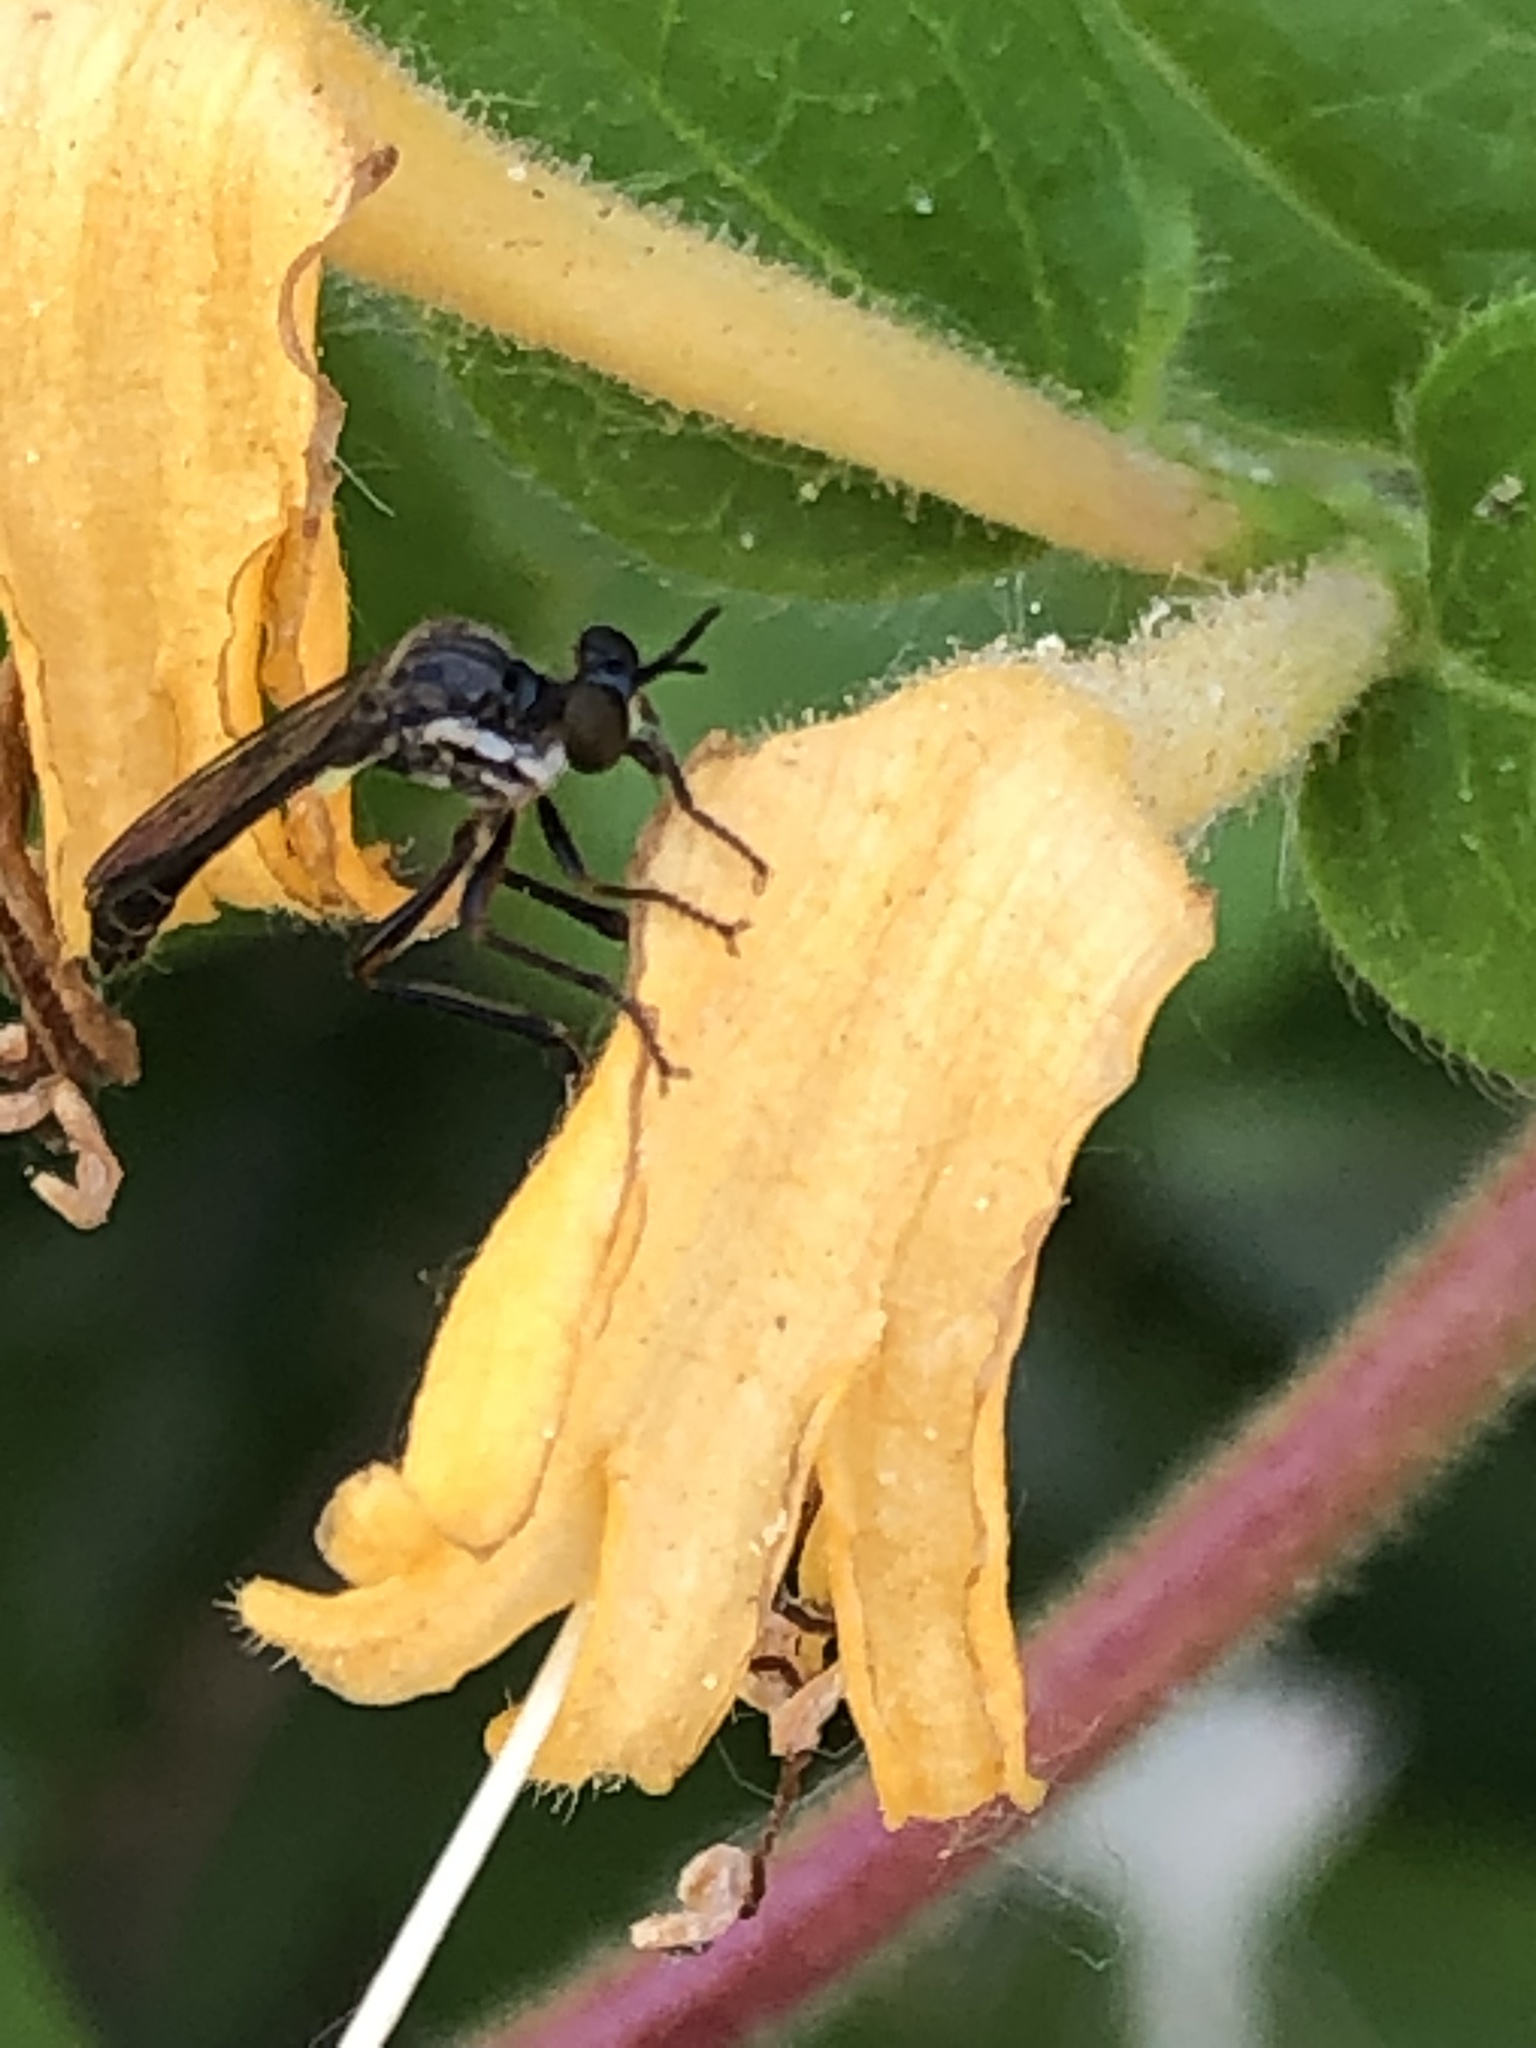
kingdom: Animalia
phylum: Arthropoda
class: Insecta
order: Diptera
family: Asilidae
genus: Dioctria
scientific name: Dioctria hyalipennis
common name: Stripe-legged robberfly
